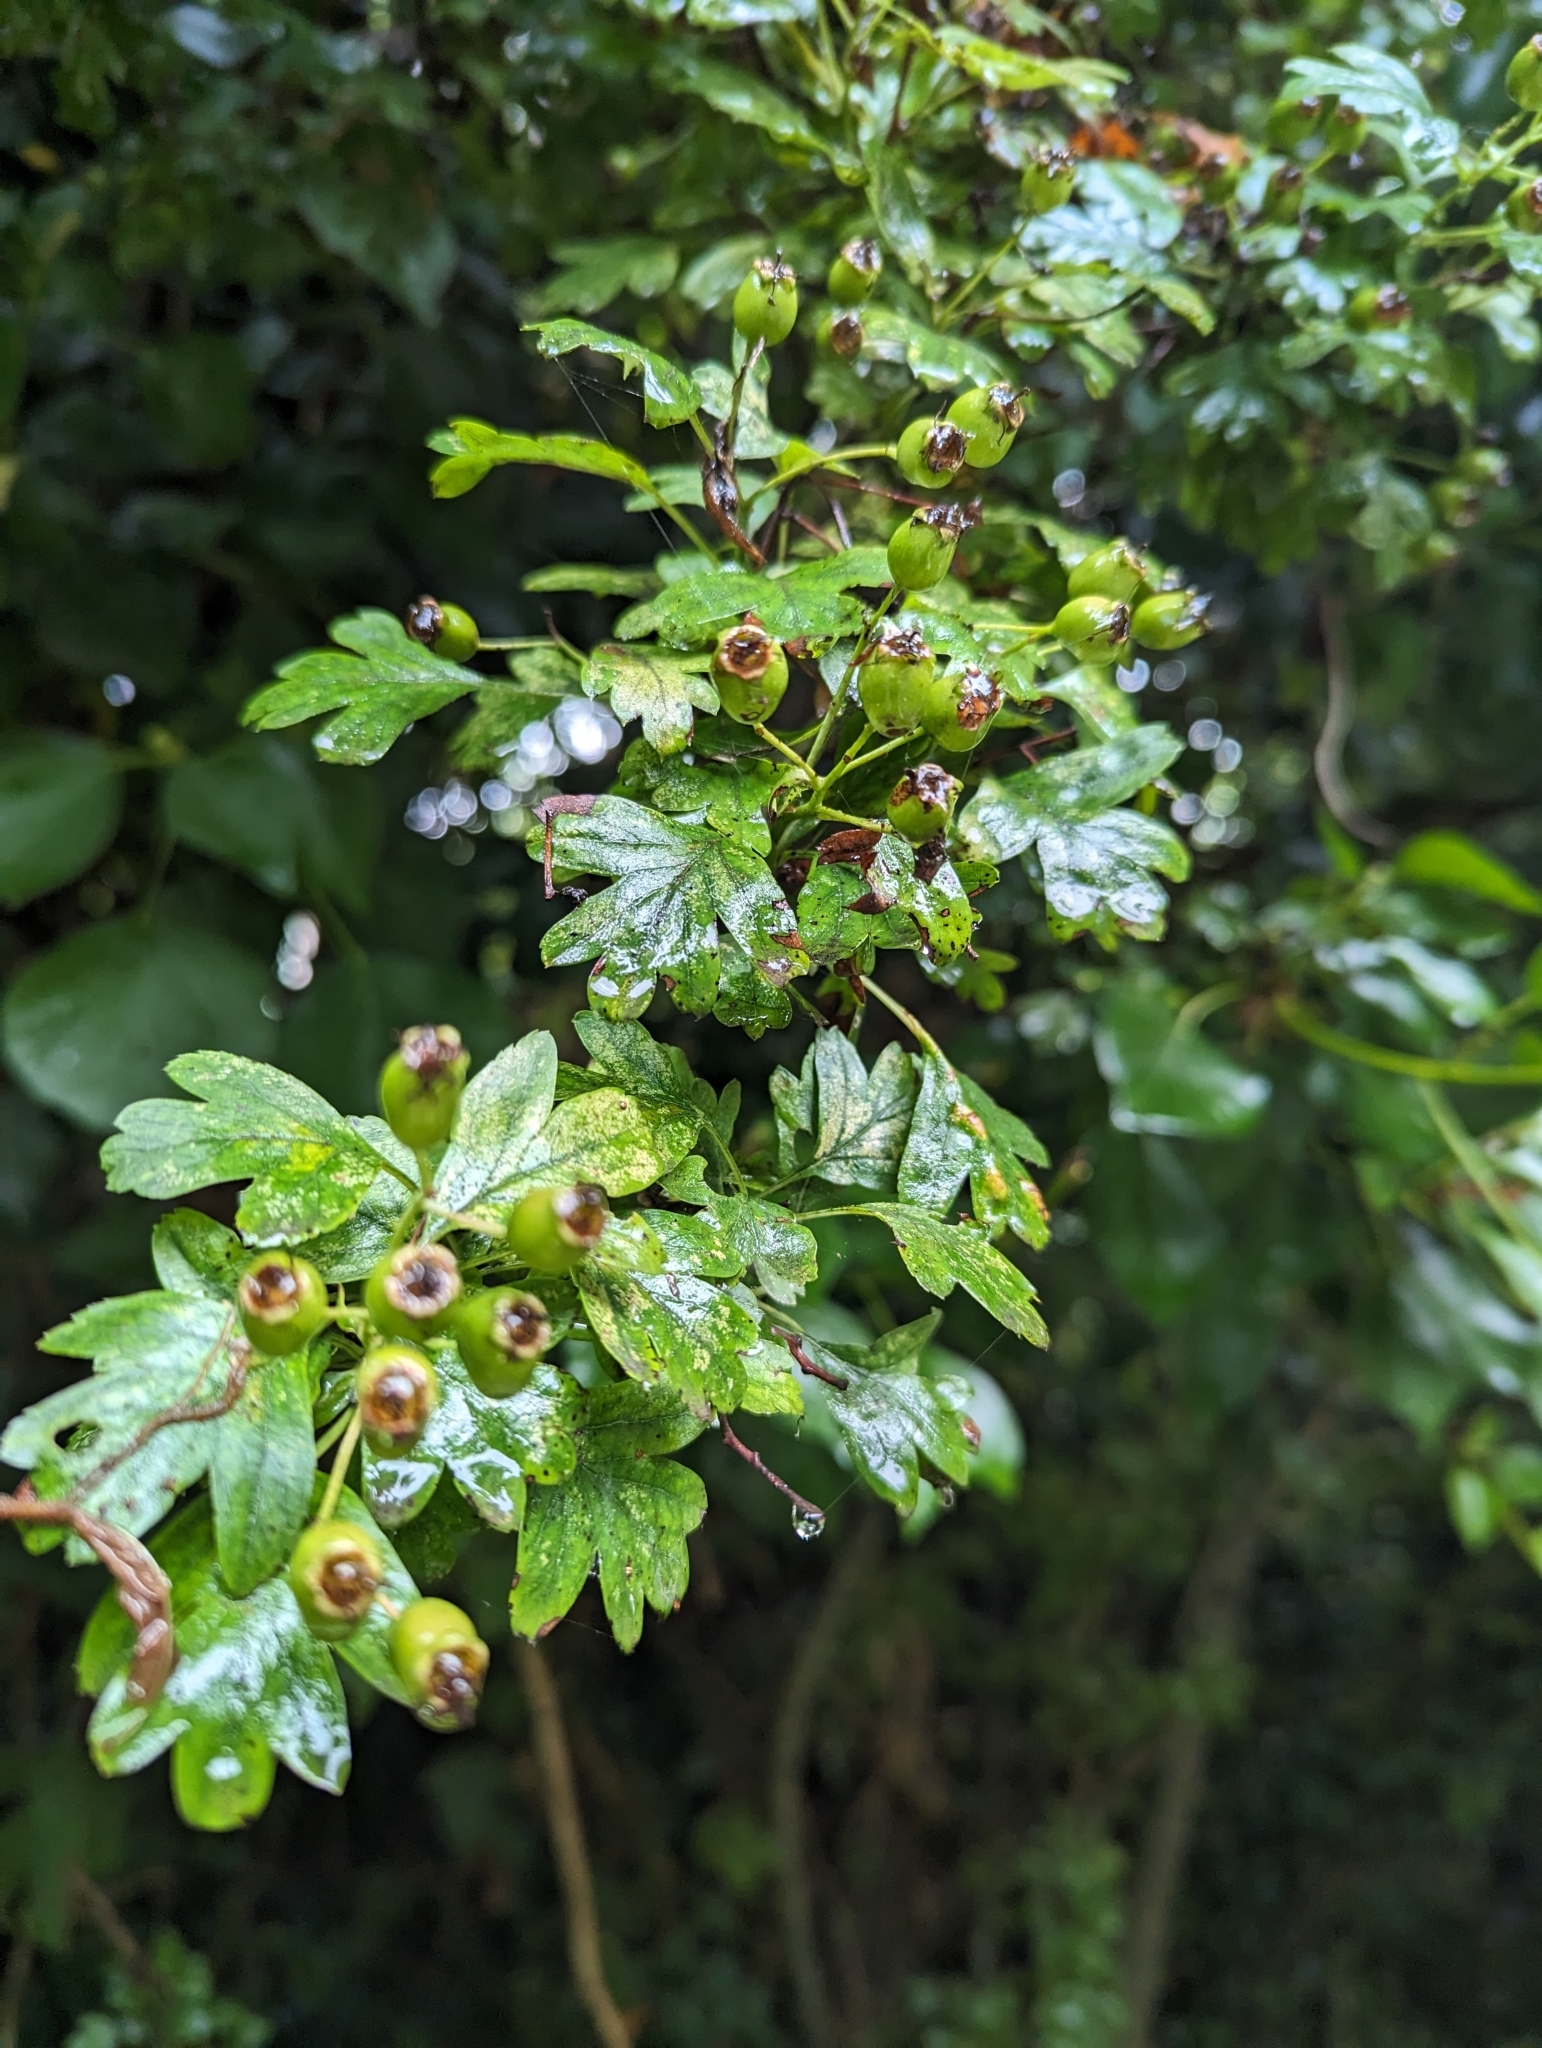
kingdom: Plantae
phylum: Tracheophyta
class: Magnoliopsida
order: Rosales
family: Rosaceae
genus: Crataegus
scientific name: Crataegus monogyna
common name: Hawthorn
